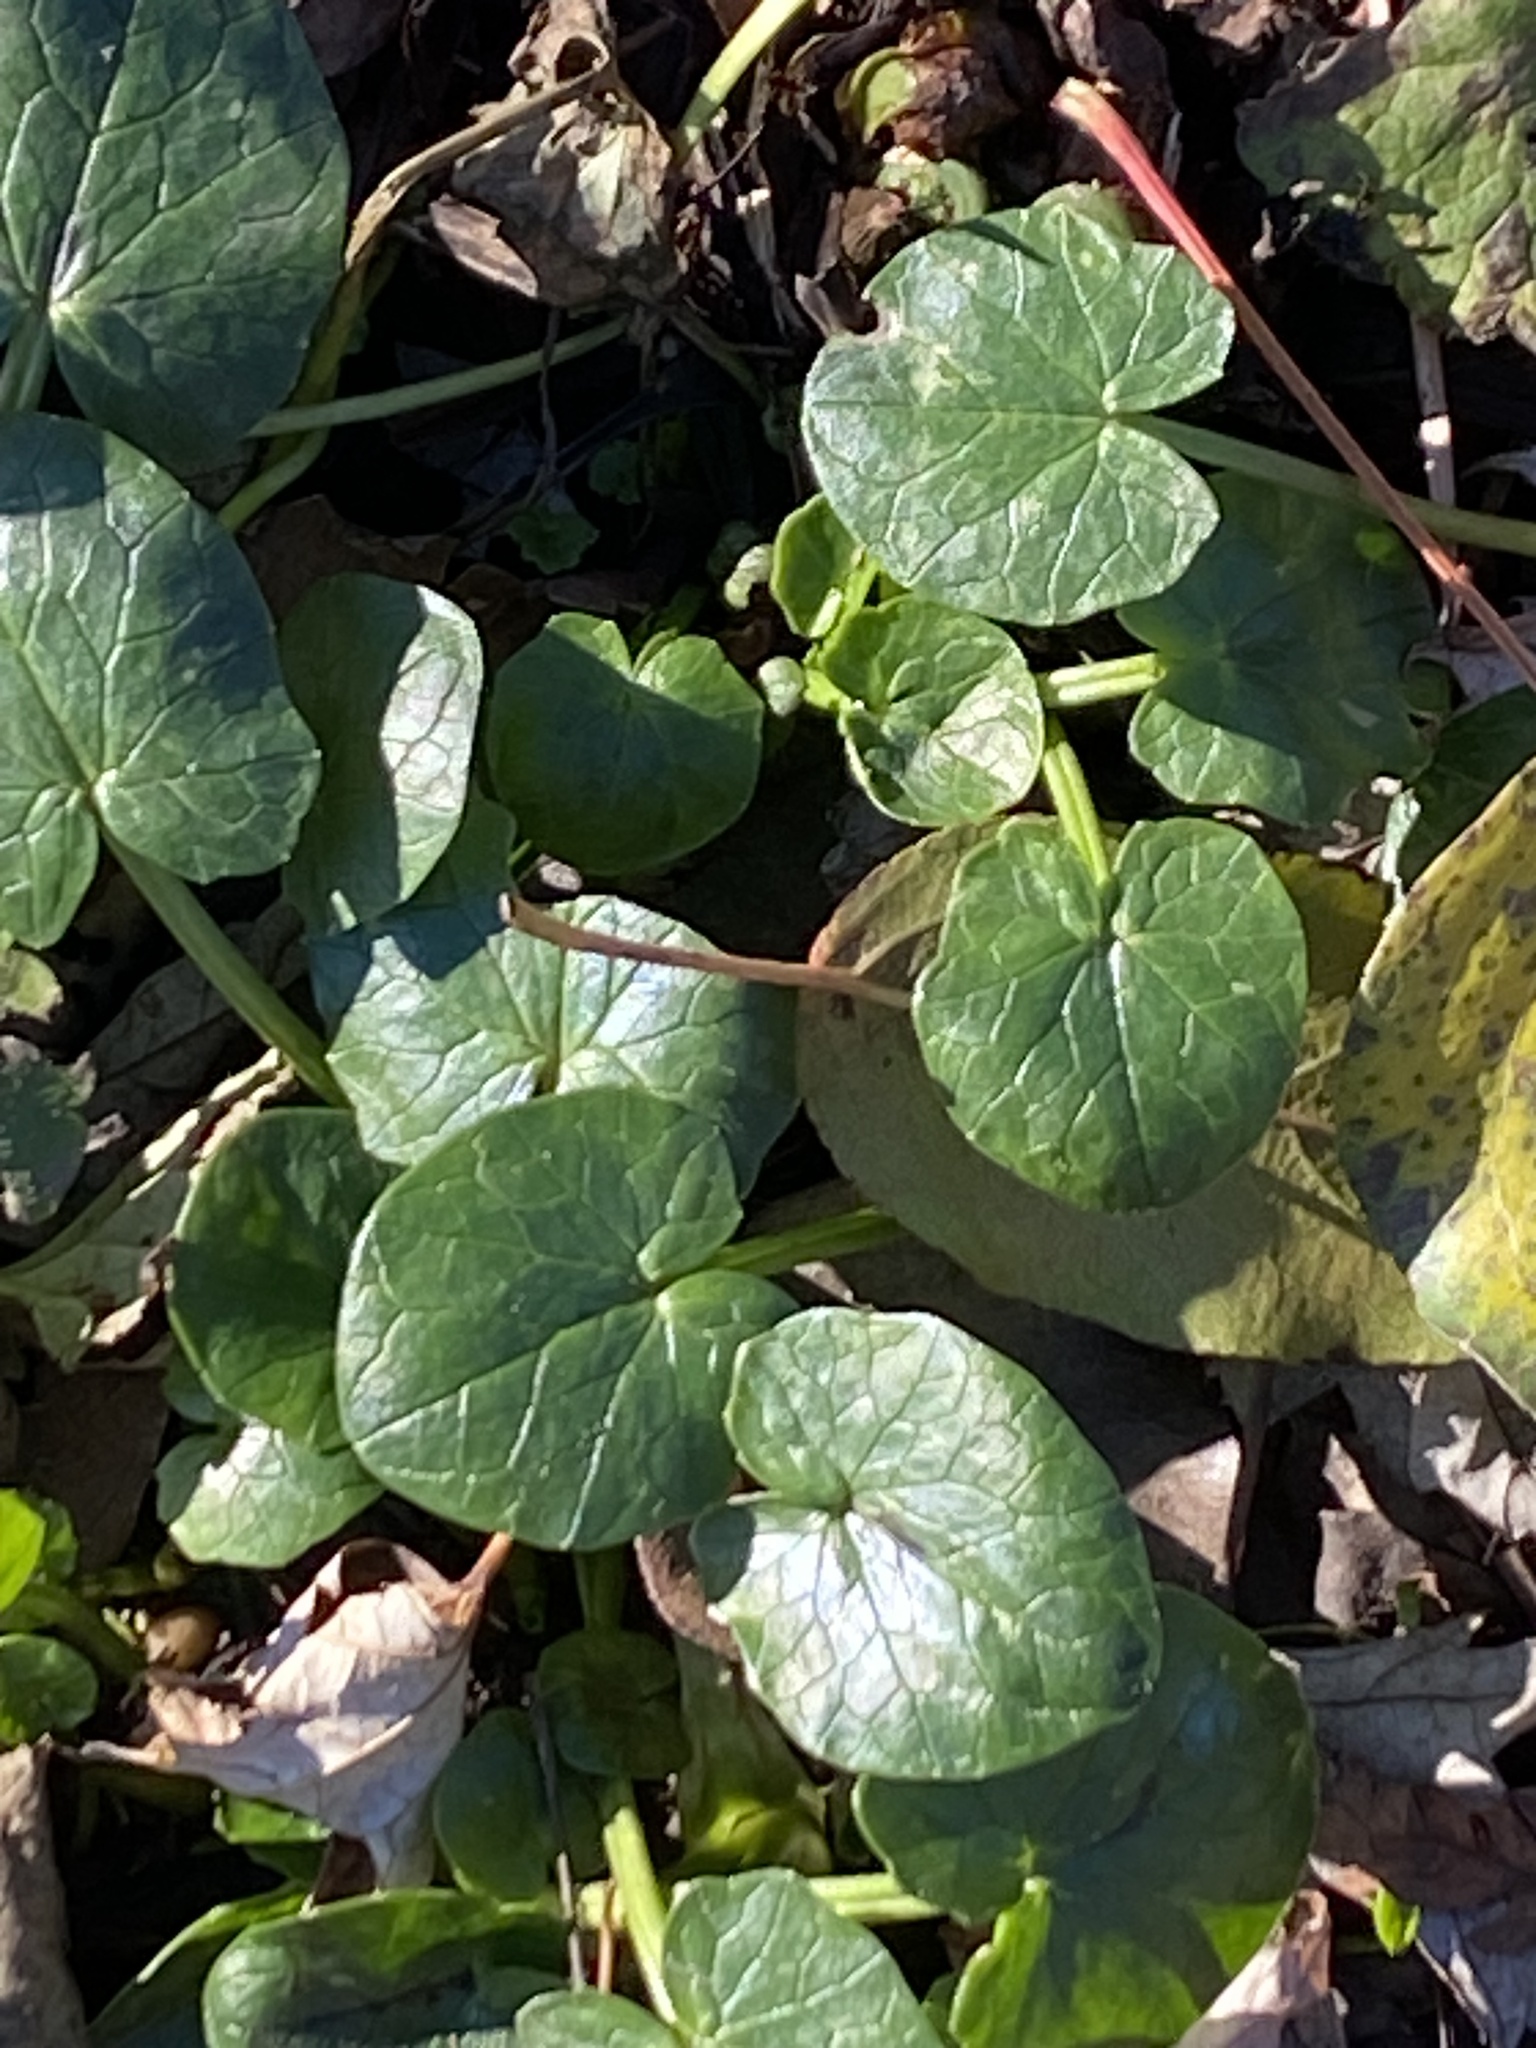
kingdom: Plantae
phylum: Tracheophyta
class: Magnoliopsida
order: Ranunculales
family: Ranunculaceae
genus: Ficaria
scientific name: Ficaria verna
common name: Lesser celandine
